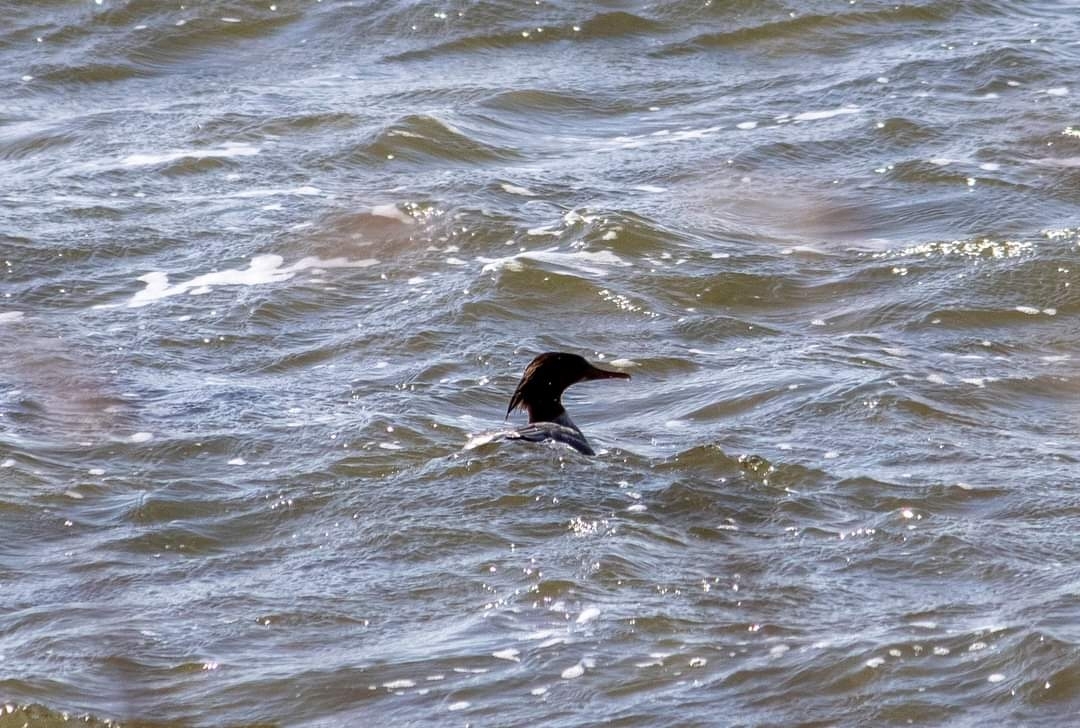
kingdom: Animalia
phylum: Chordata
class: Aves
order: Anseriformes
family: Anatidae
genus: Mergus
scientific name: Mergus merganser
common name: Common merganser
